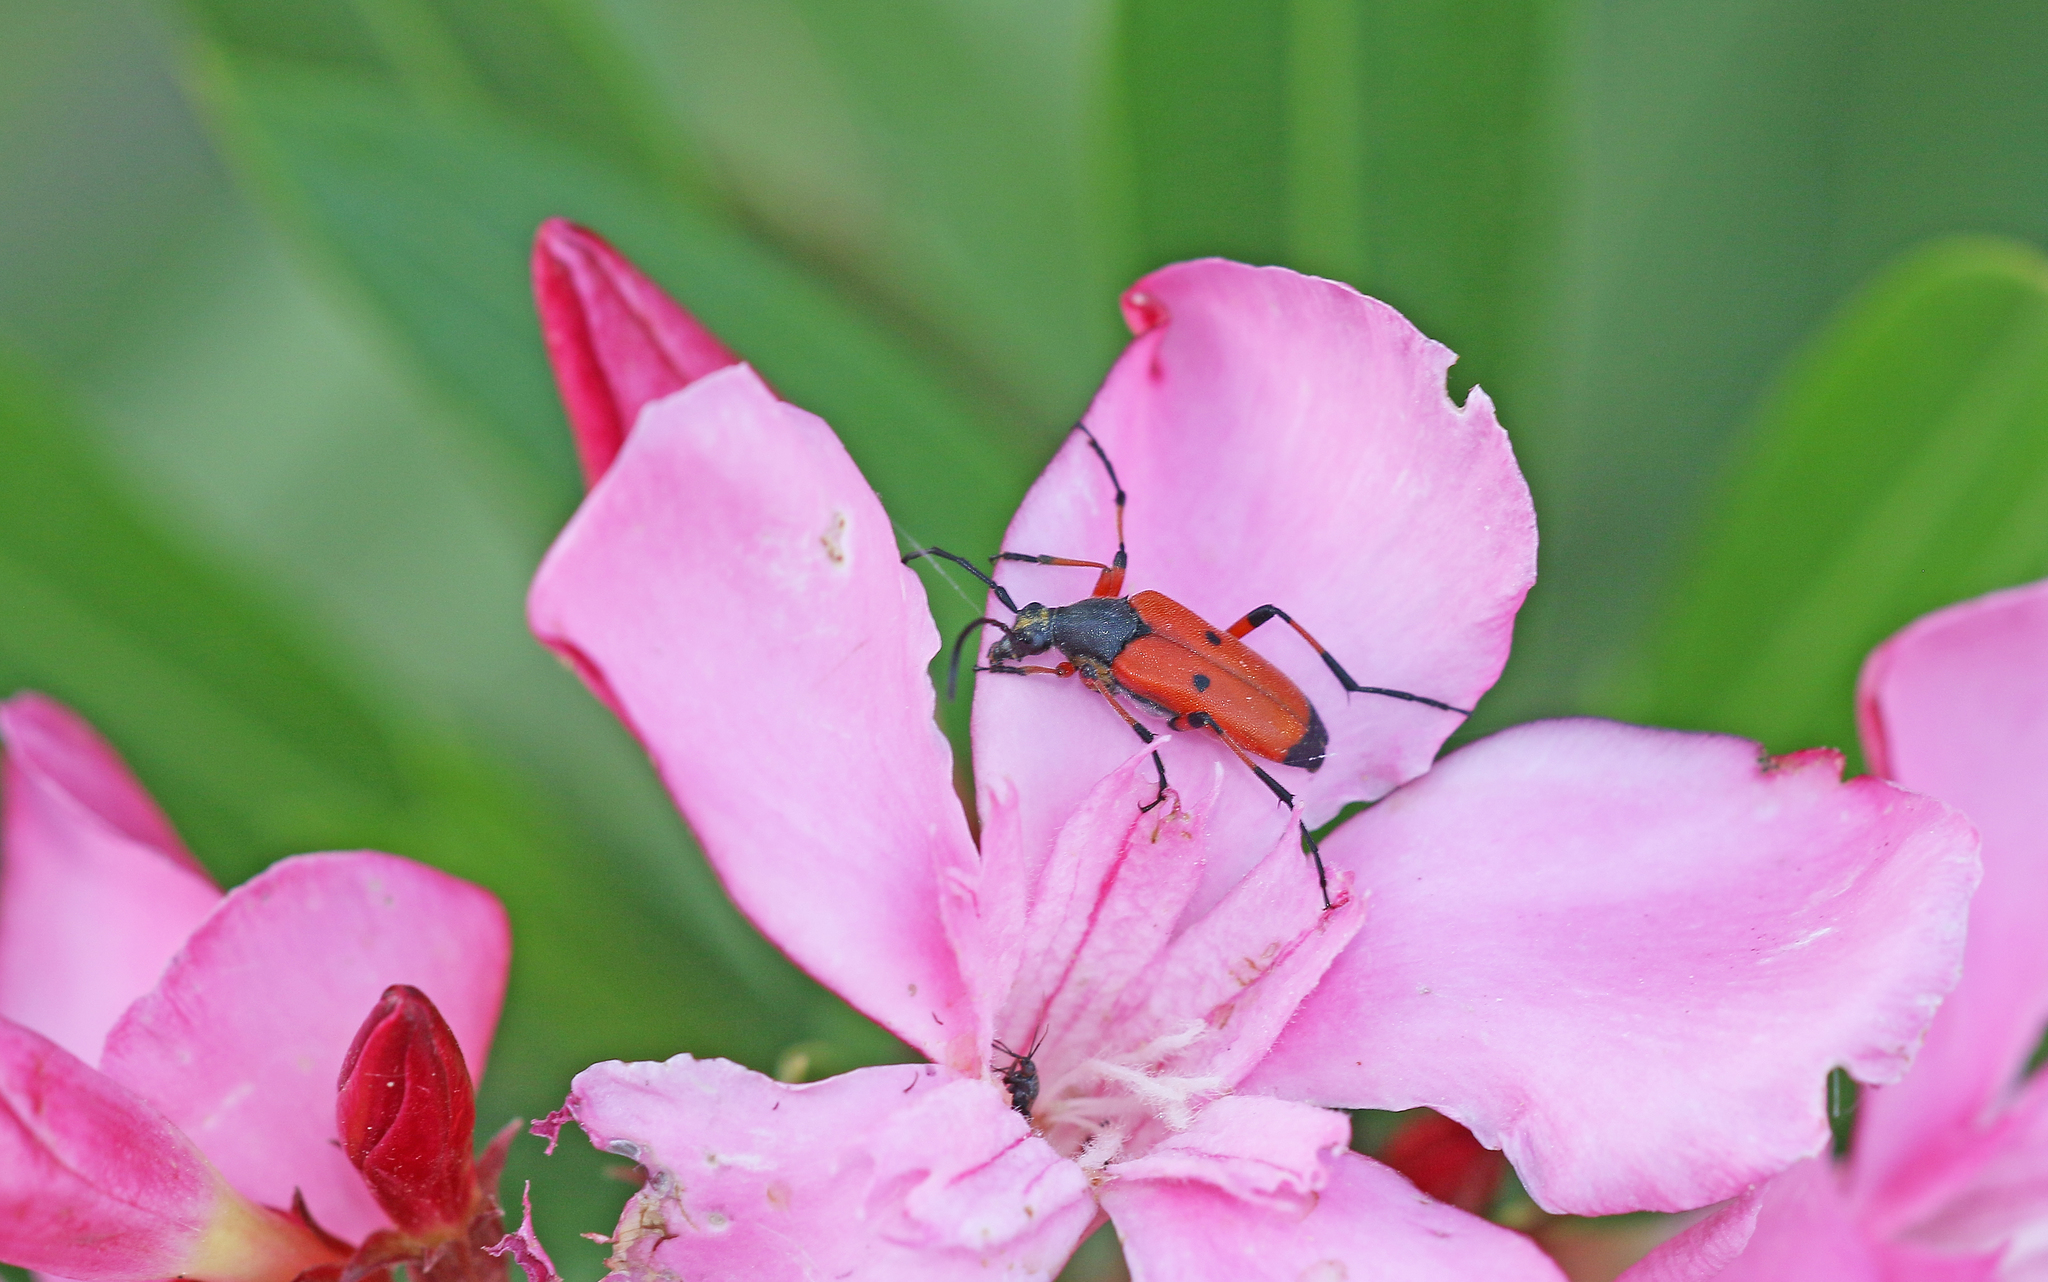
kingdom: Animalia
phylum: Arthropoda
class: Insecta
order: Coleoptera
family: Cerambycidae
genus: Nustera
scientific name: Nustera distigma
